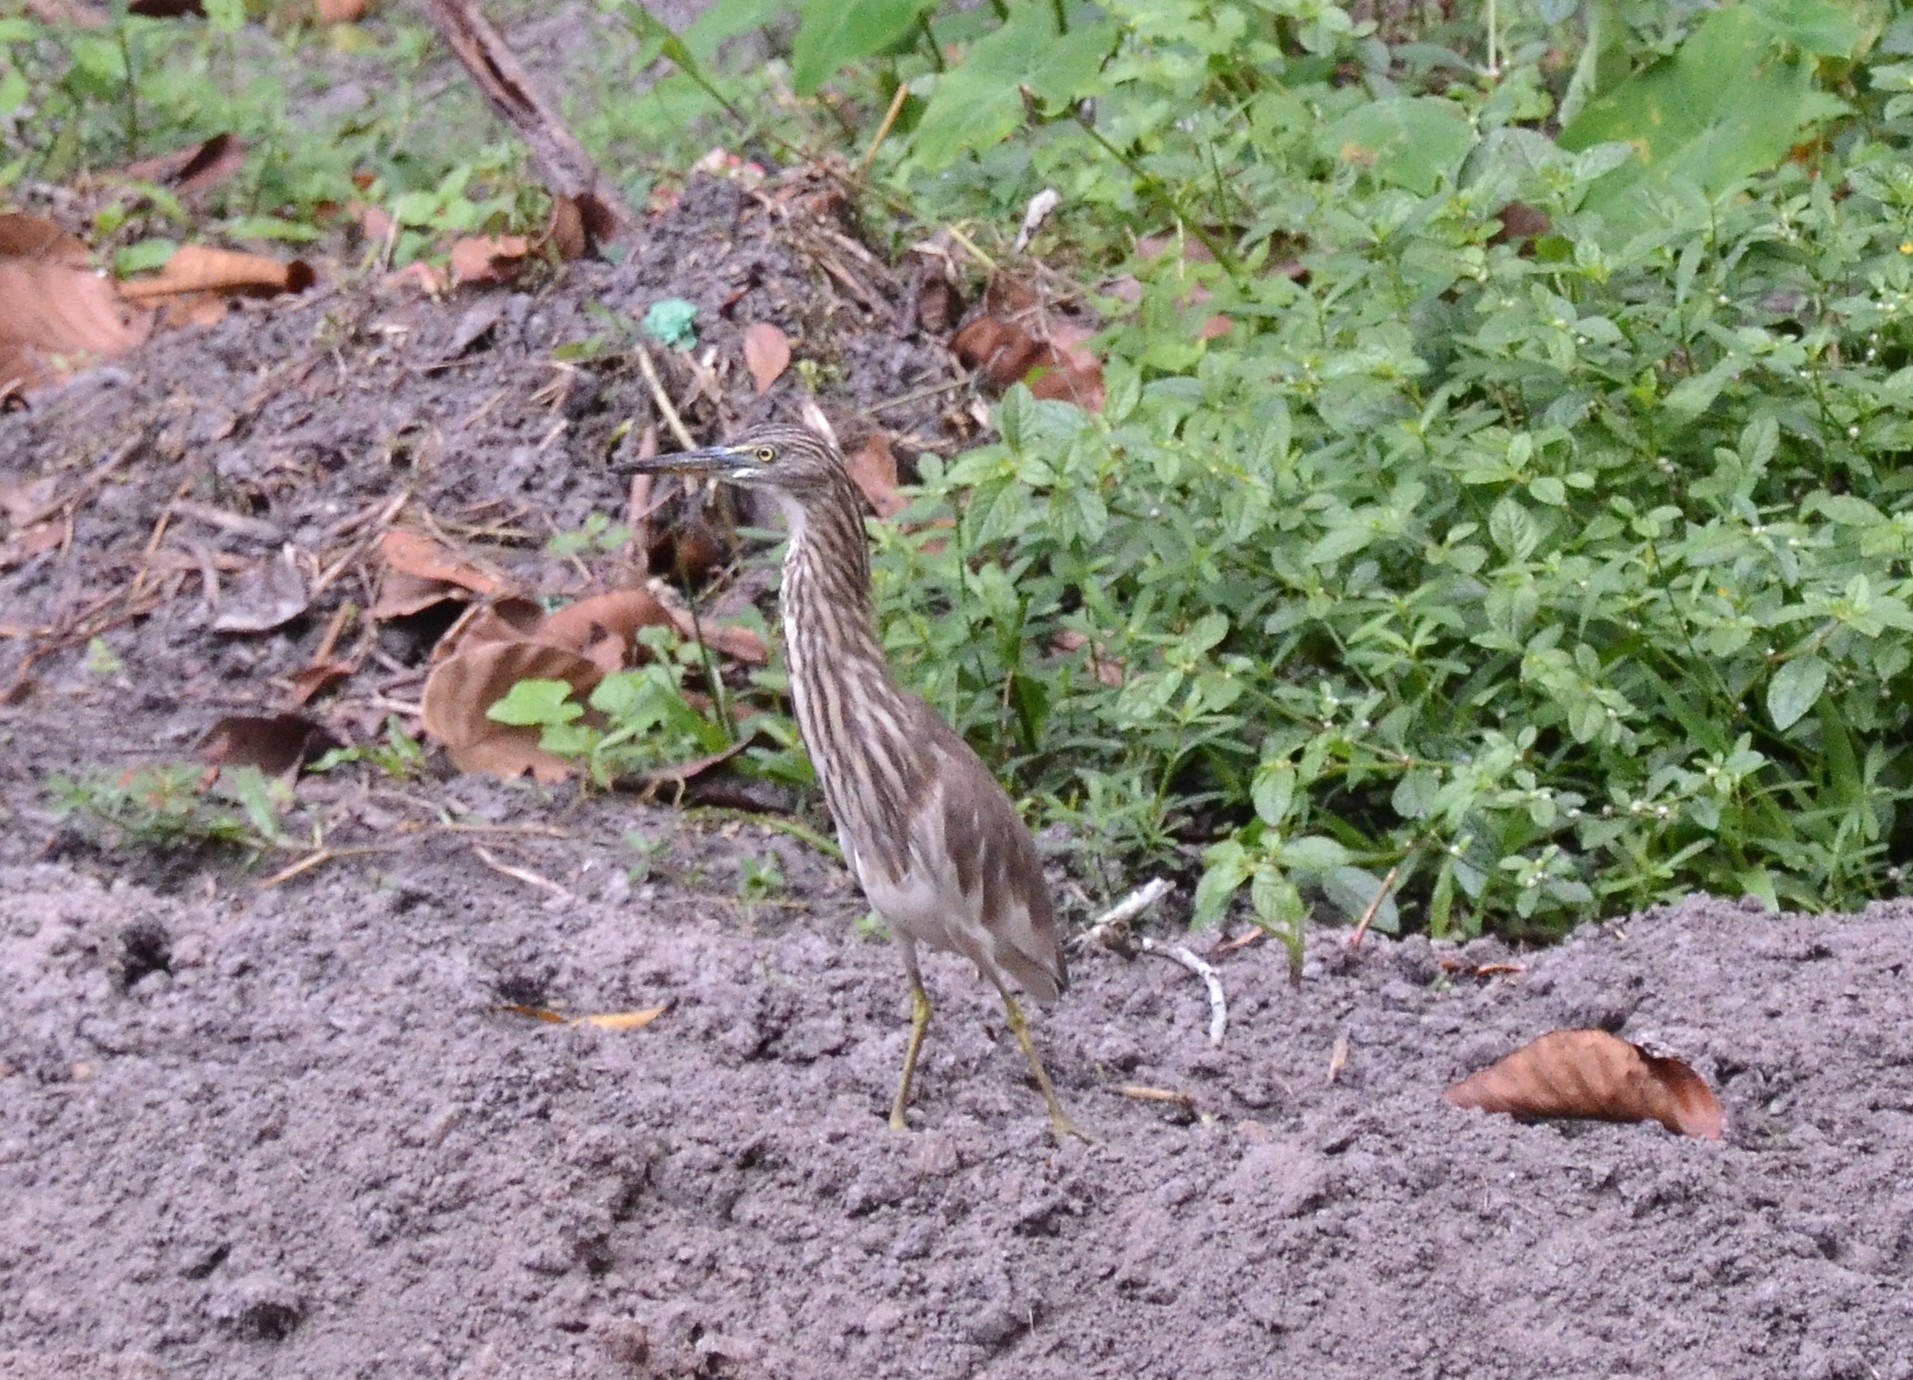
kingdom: Animalia
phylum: Chordata
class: Aves
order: Pelecaniformes
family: Ardeidae
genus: Ardeola
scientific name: Ardeola grayii
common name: Indian pond heron
